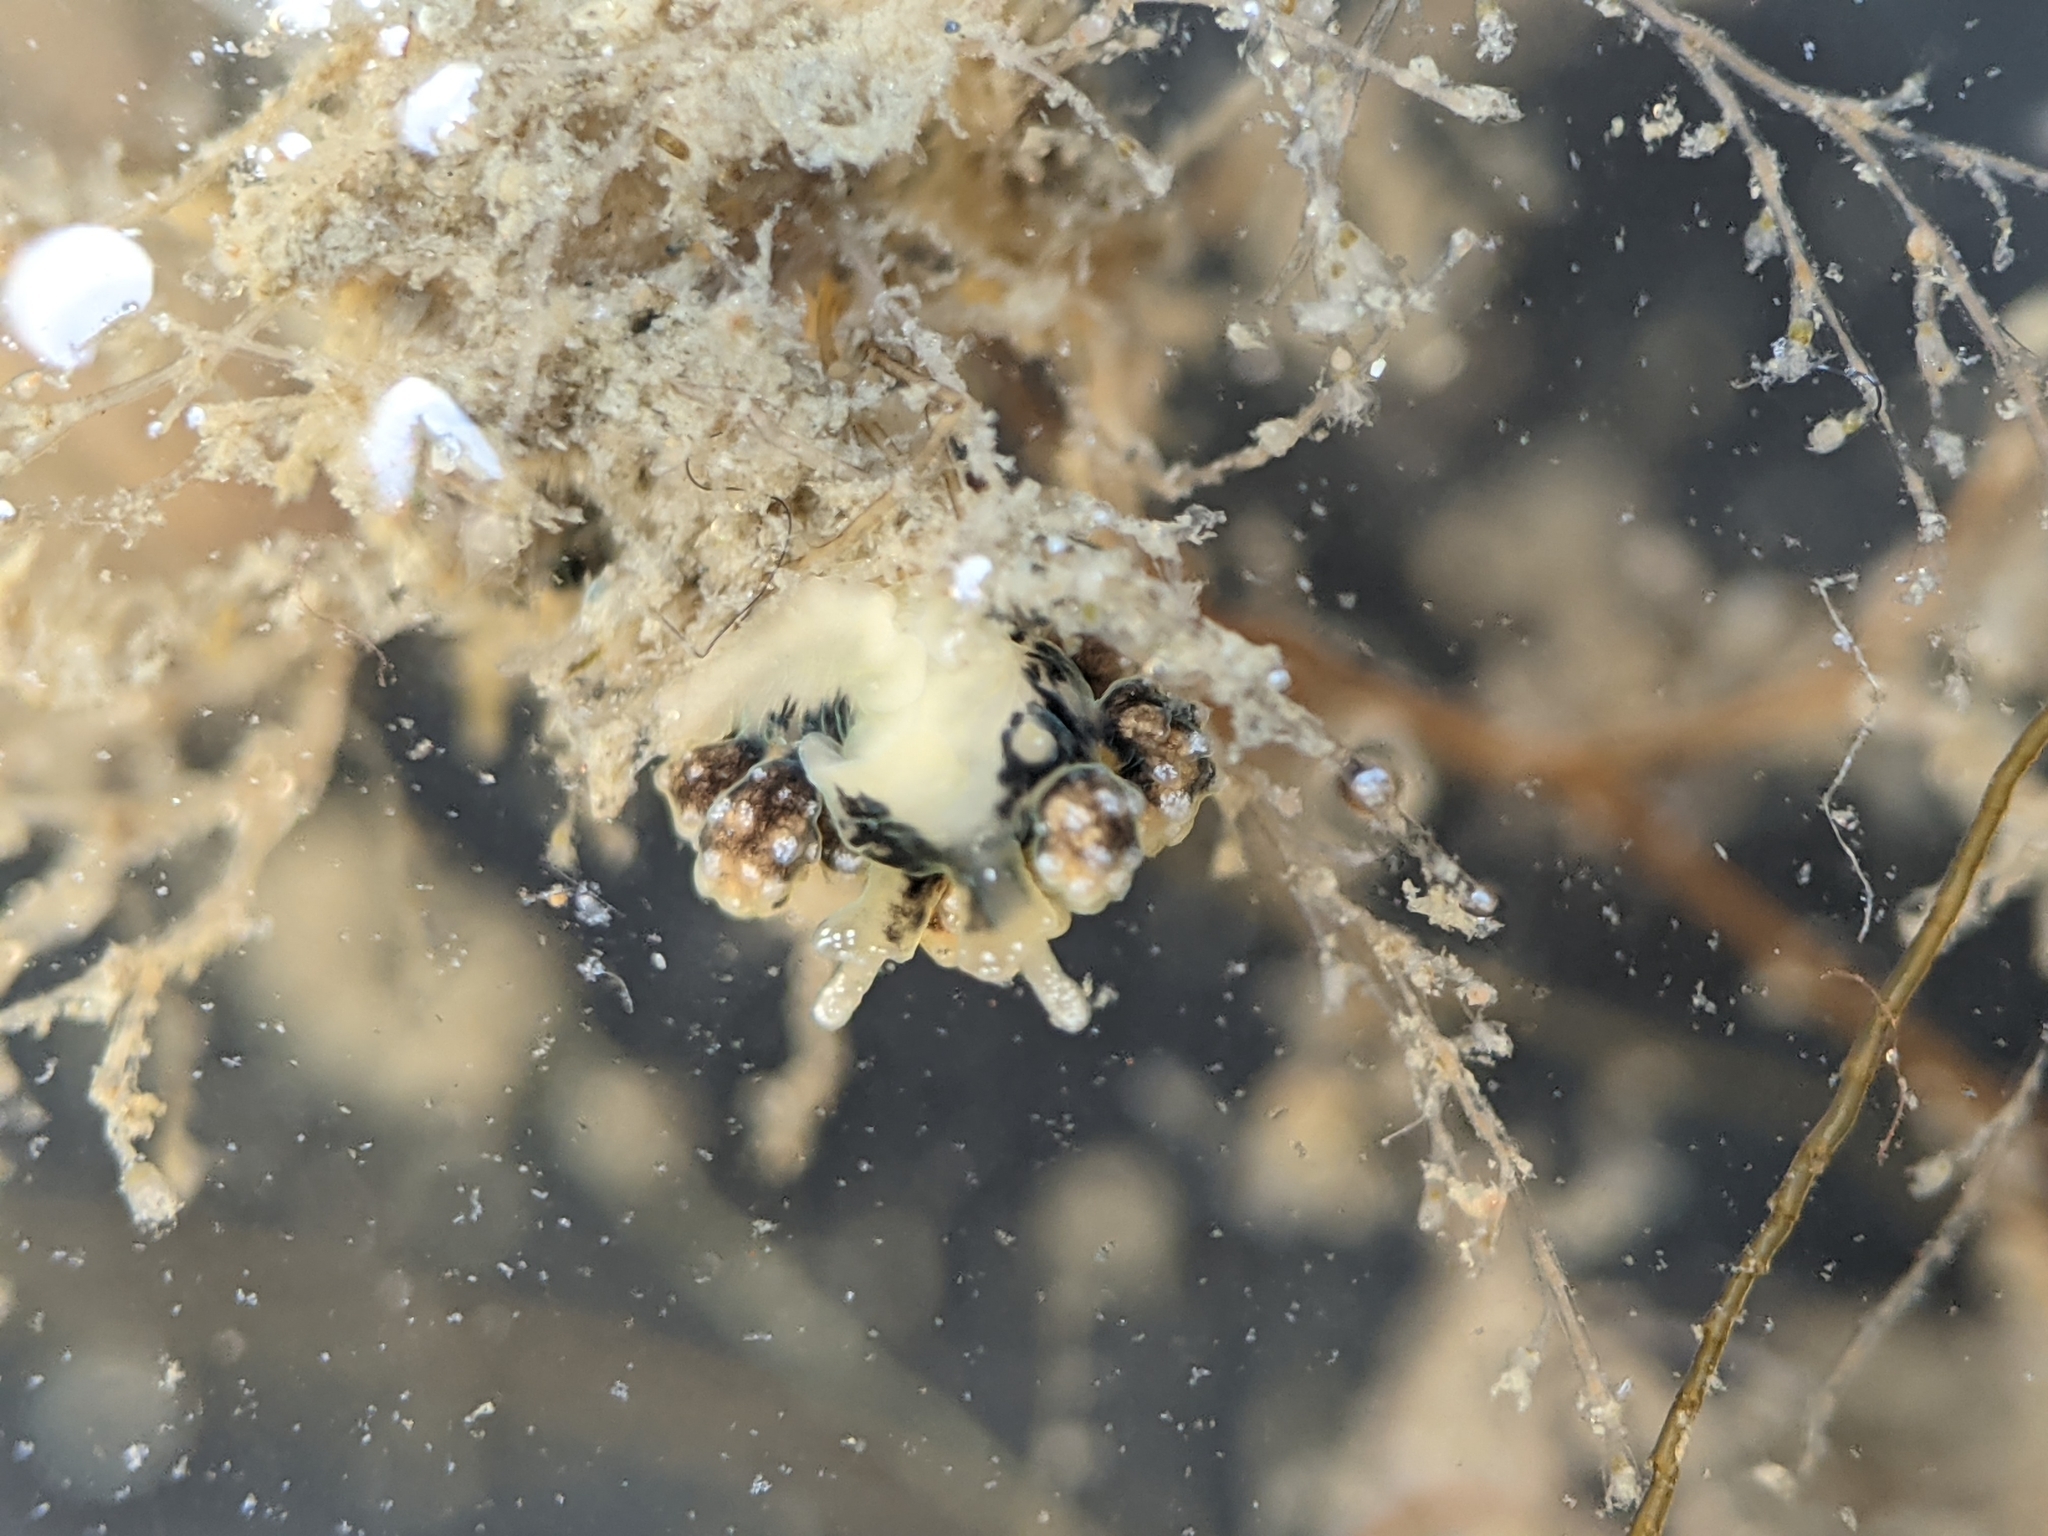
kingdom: Animalia
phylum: Mollusca
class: Gastropoda
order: Nudibranchia
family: Dotidae
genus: Doto
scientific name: Doto kya
